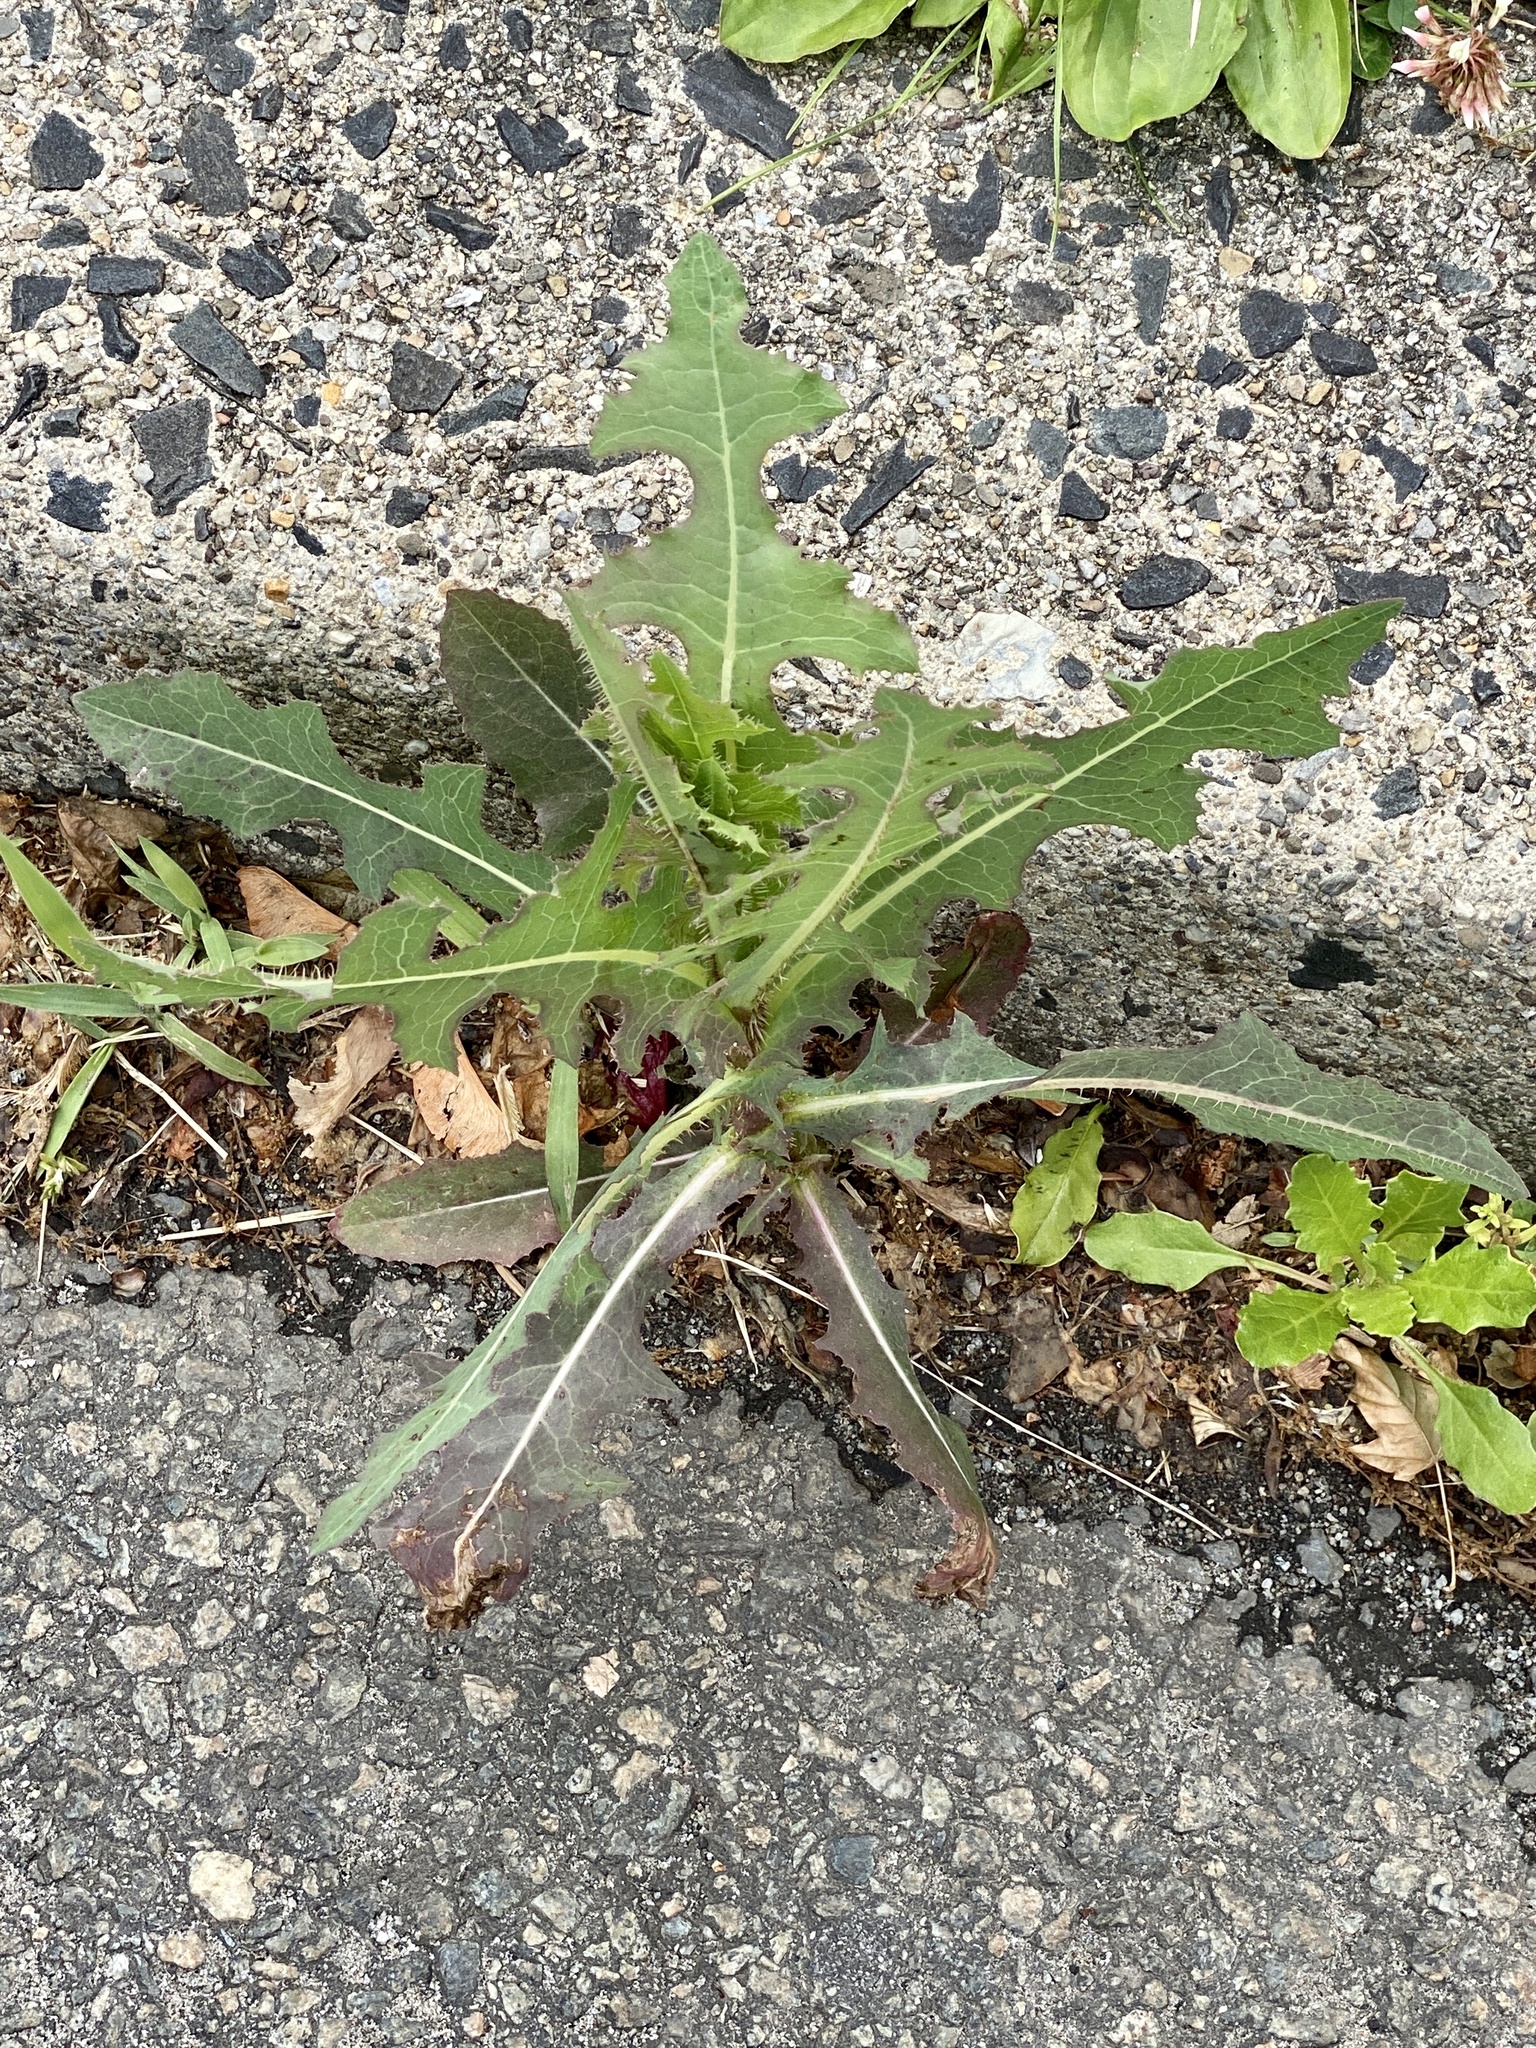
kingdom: Plantae
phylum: Tracheophyta
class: Magnoliopsida
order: Asterales
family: Asteraceae
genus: Lactuca
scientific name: Lactuca serriola
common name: Prickly lettuce
